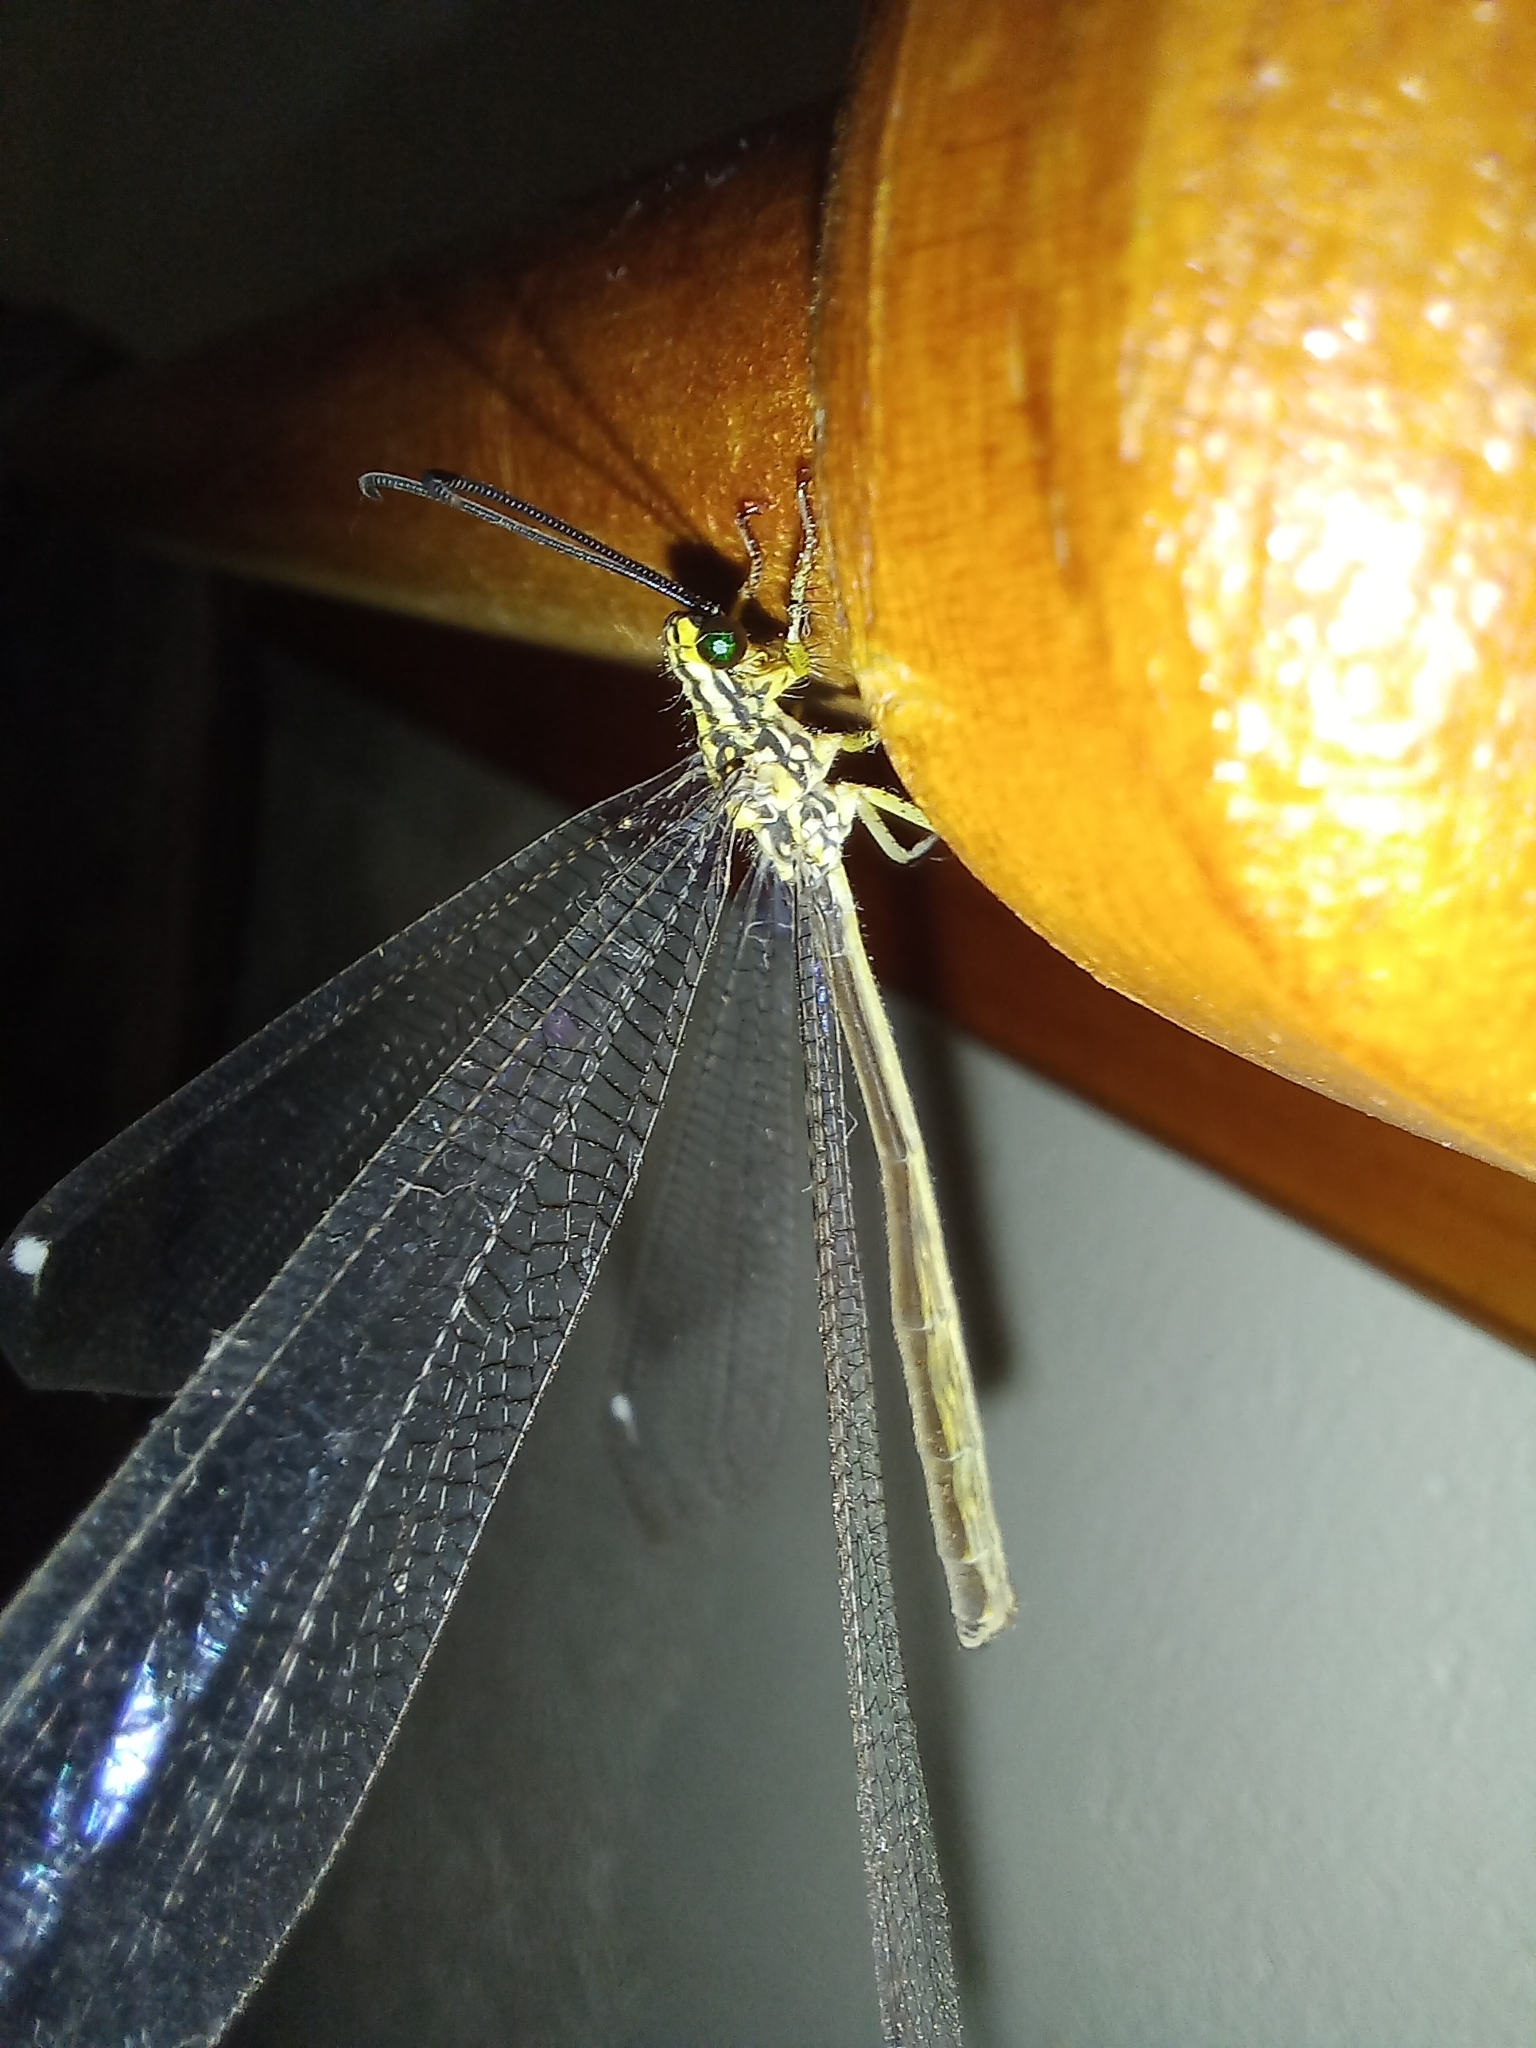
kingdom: Animalia
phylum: Arthropoda
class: Insecta
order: Neuroptera
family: Myrmeleontidae
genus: Banyutus
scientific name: Banyutus lethalis
